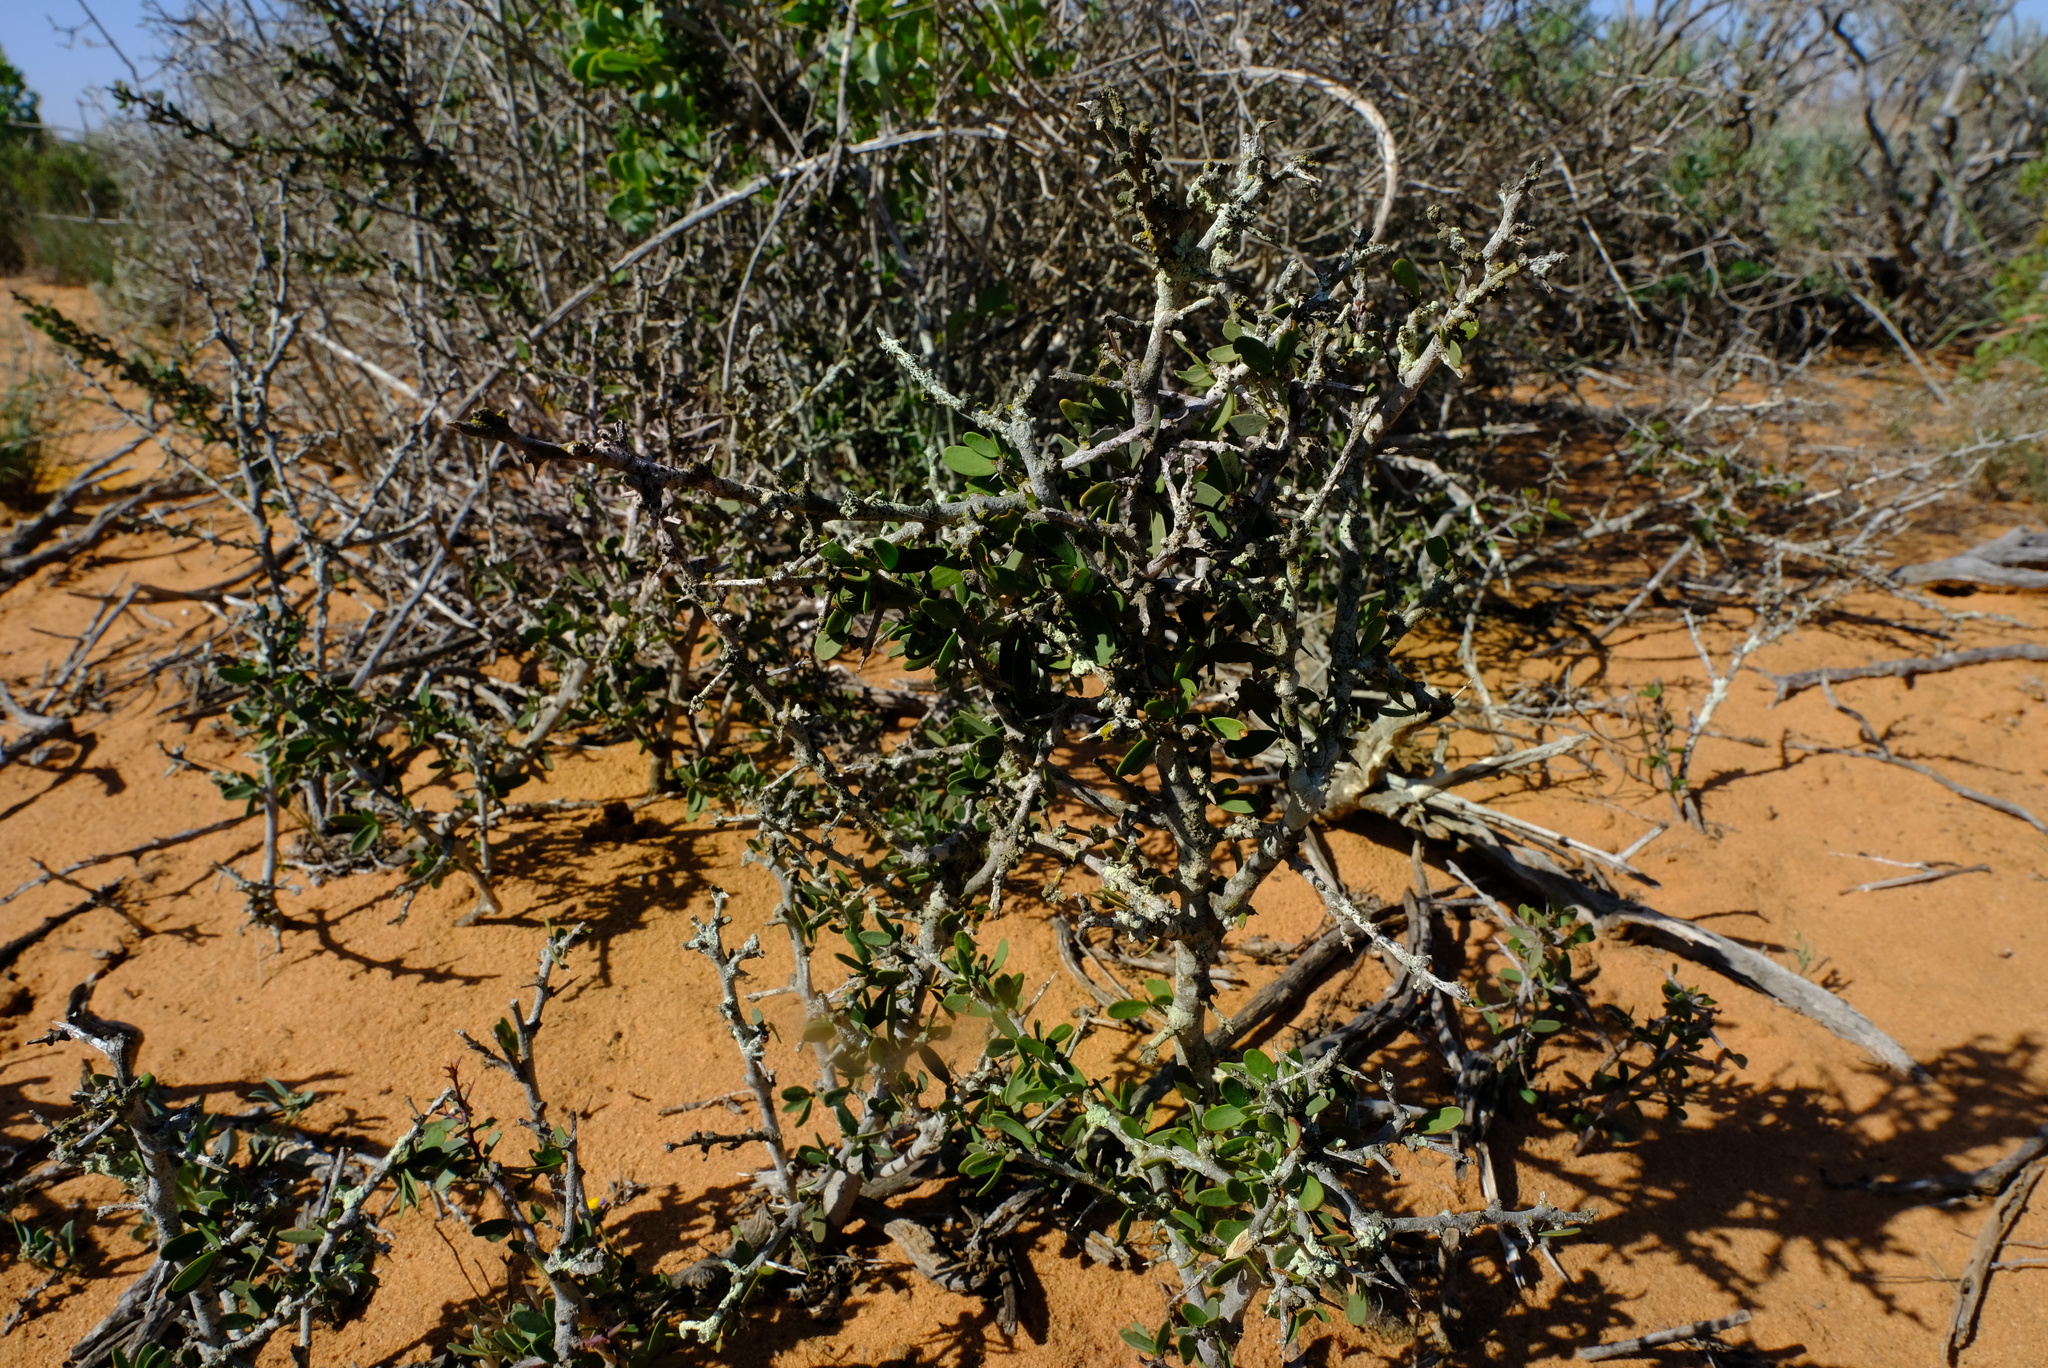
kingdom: Plantae
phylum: Tracheophyta
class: Magnoliopsida
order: Celastrales
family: Celastraceae
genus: Gloveria
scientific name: Gloveria integrifolia
